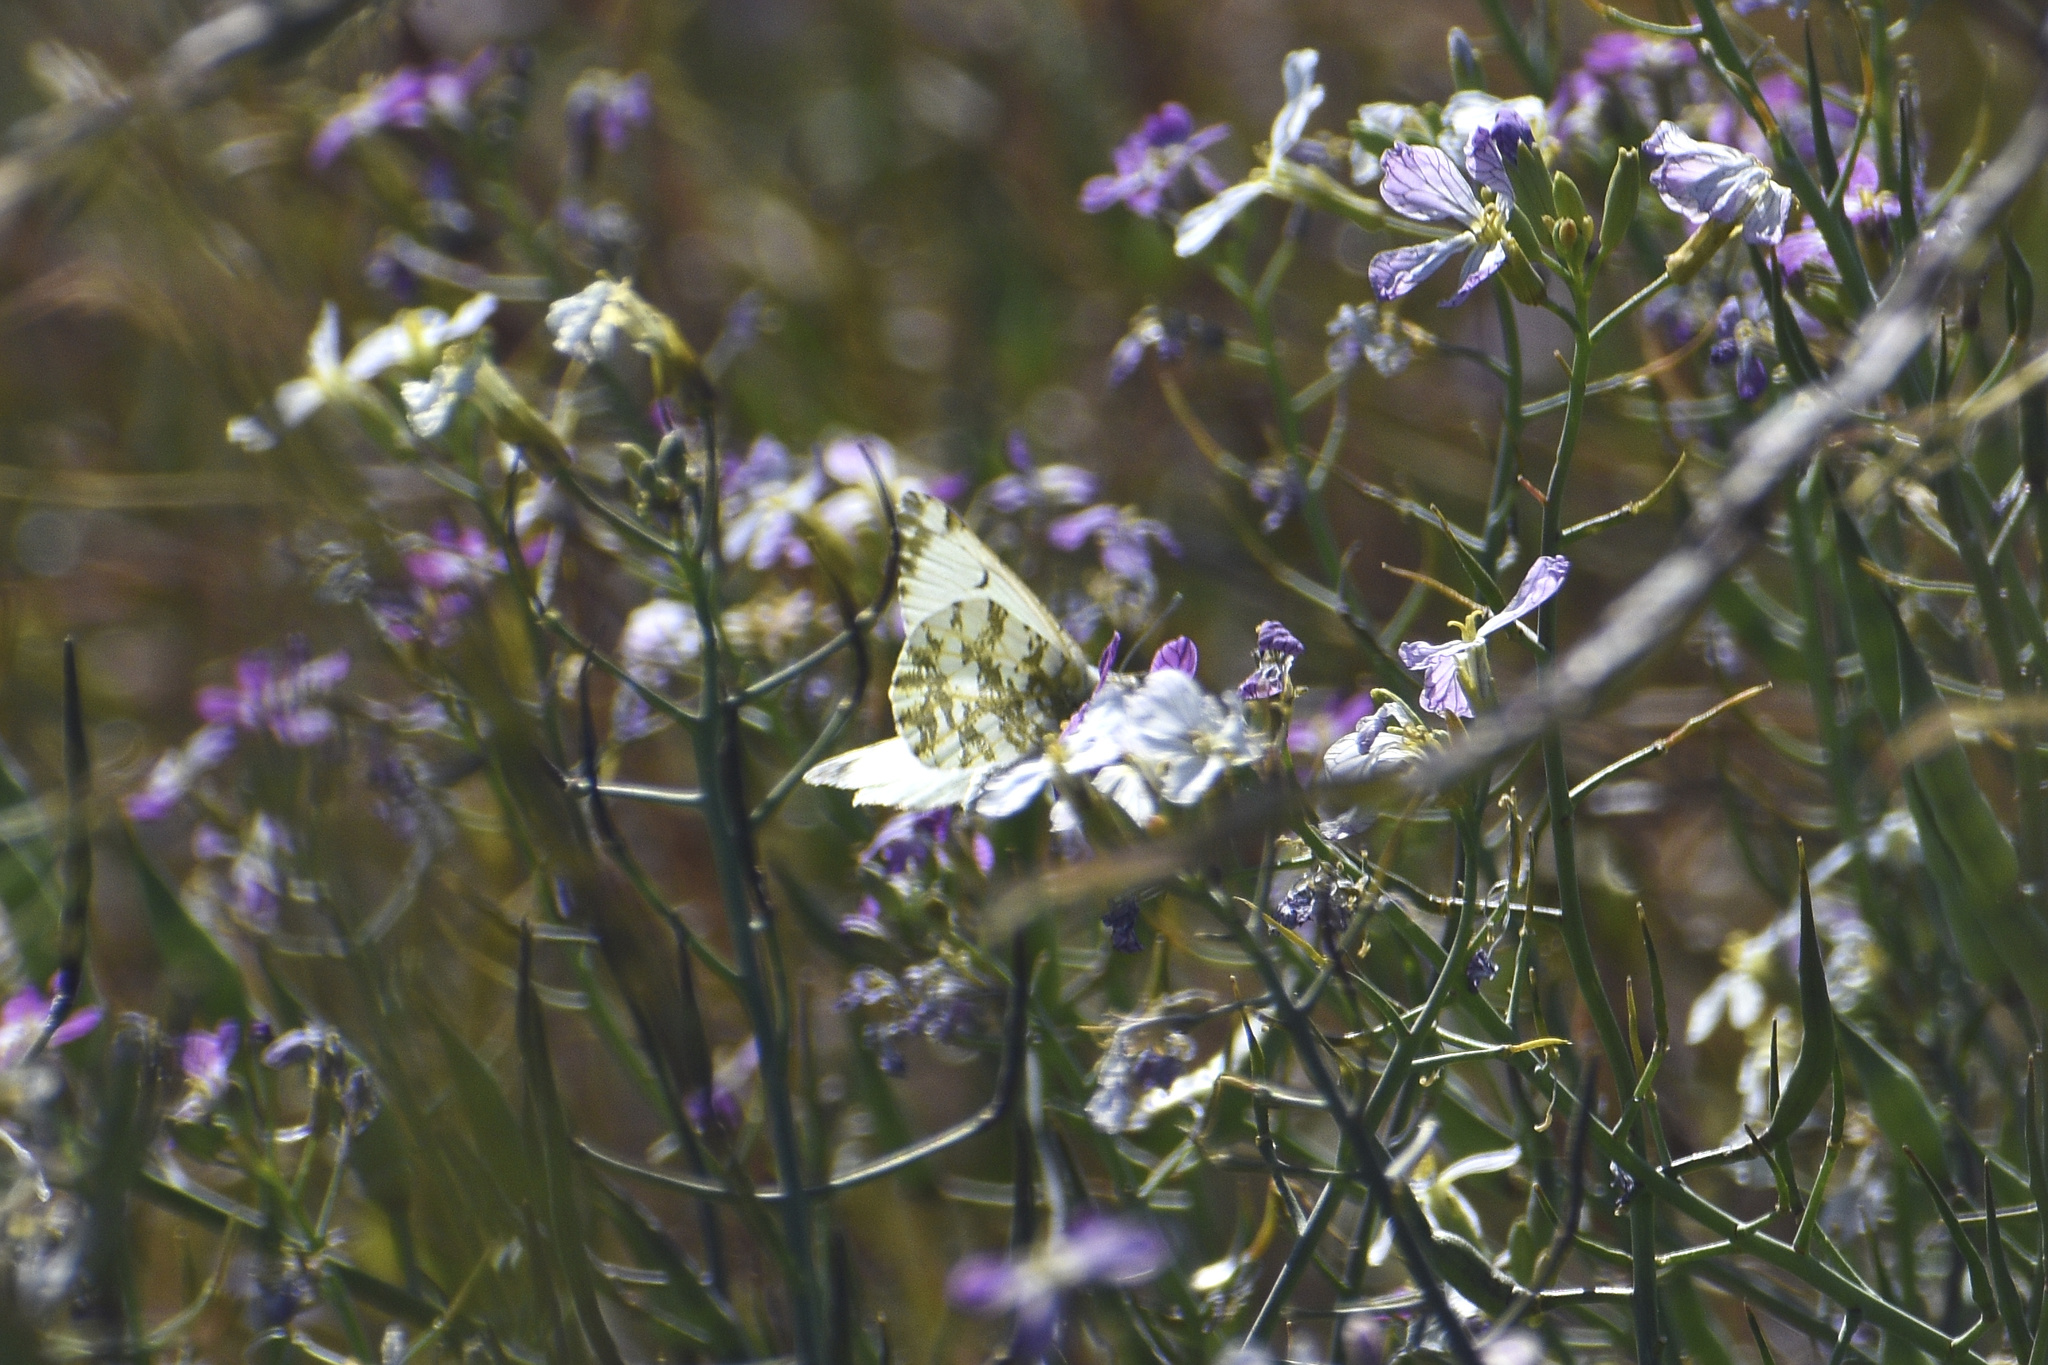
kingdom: Animalia
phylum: Arthropoda
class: Insecta
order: Lepidoptera
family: Pieridae
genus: Euchloe
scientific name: Euchloe ausonides
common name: Creamy marblewing
